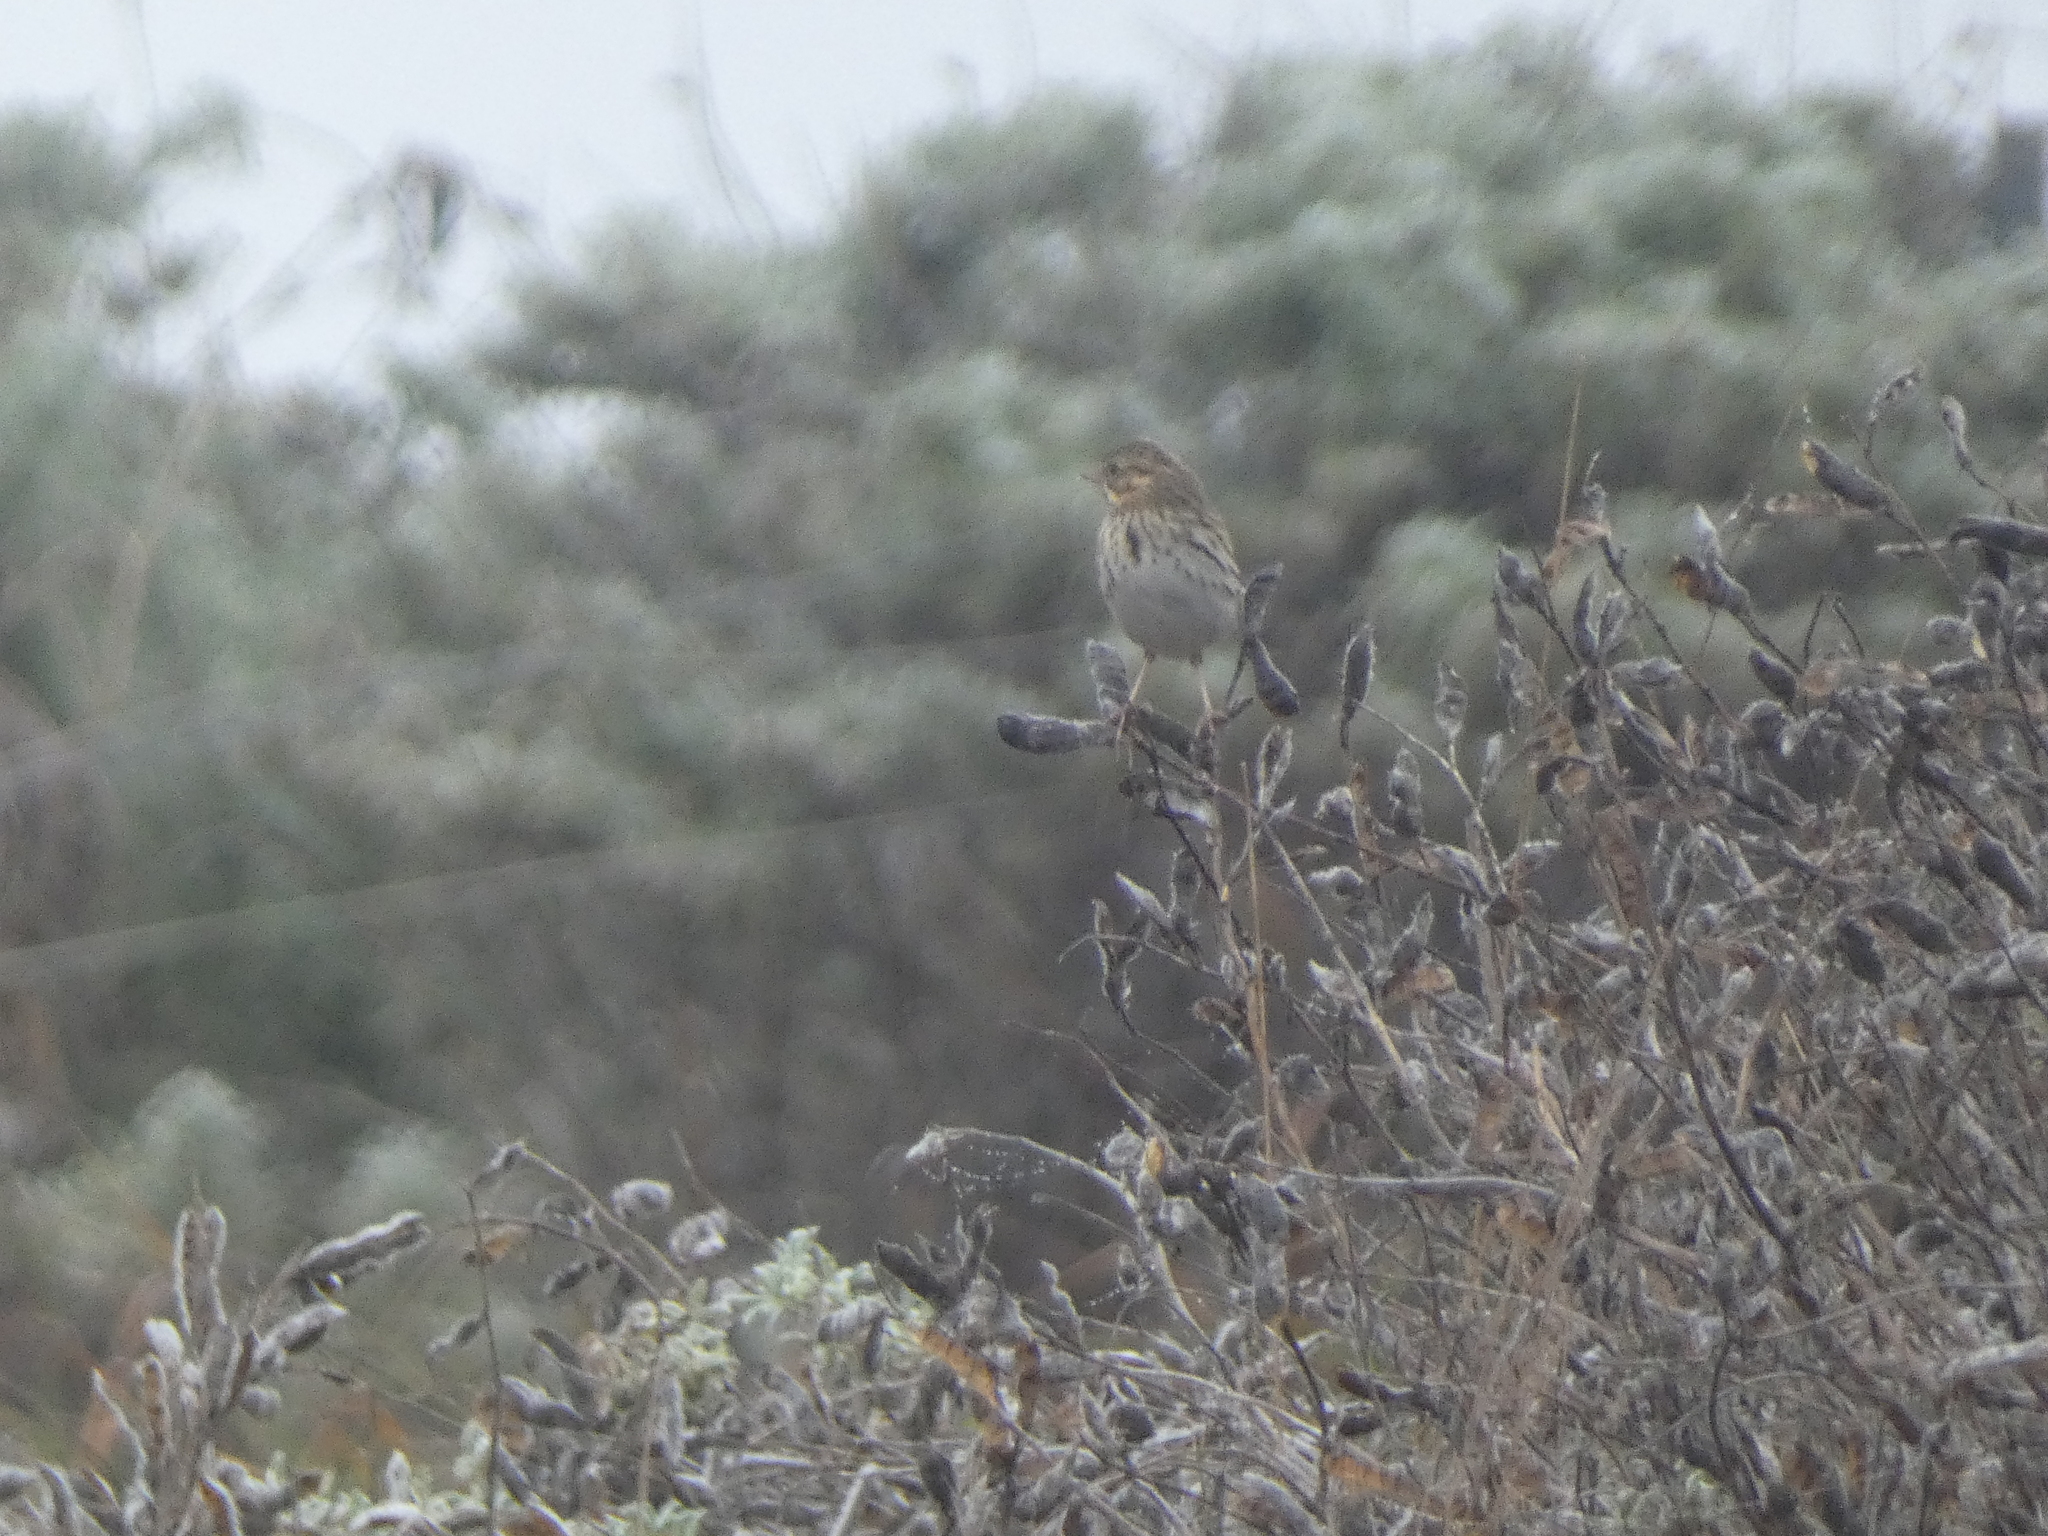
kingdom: Animalia
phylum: Chordata
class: Aves
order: Passeriformes
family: Passerellidae
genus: Passerculus
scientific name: Passerculus sandwichensis
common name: Savannah sparrow
